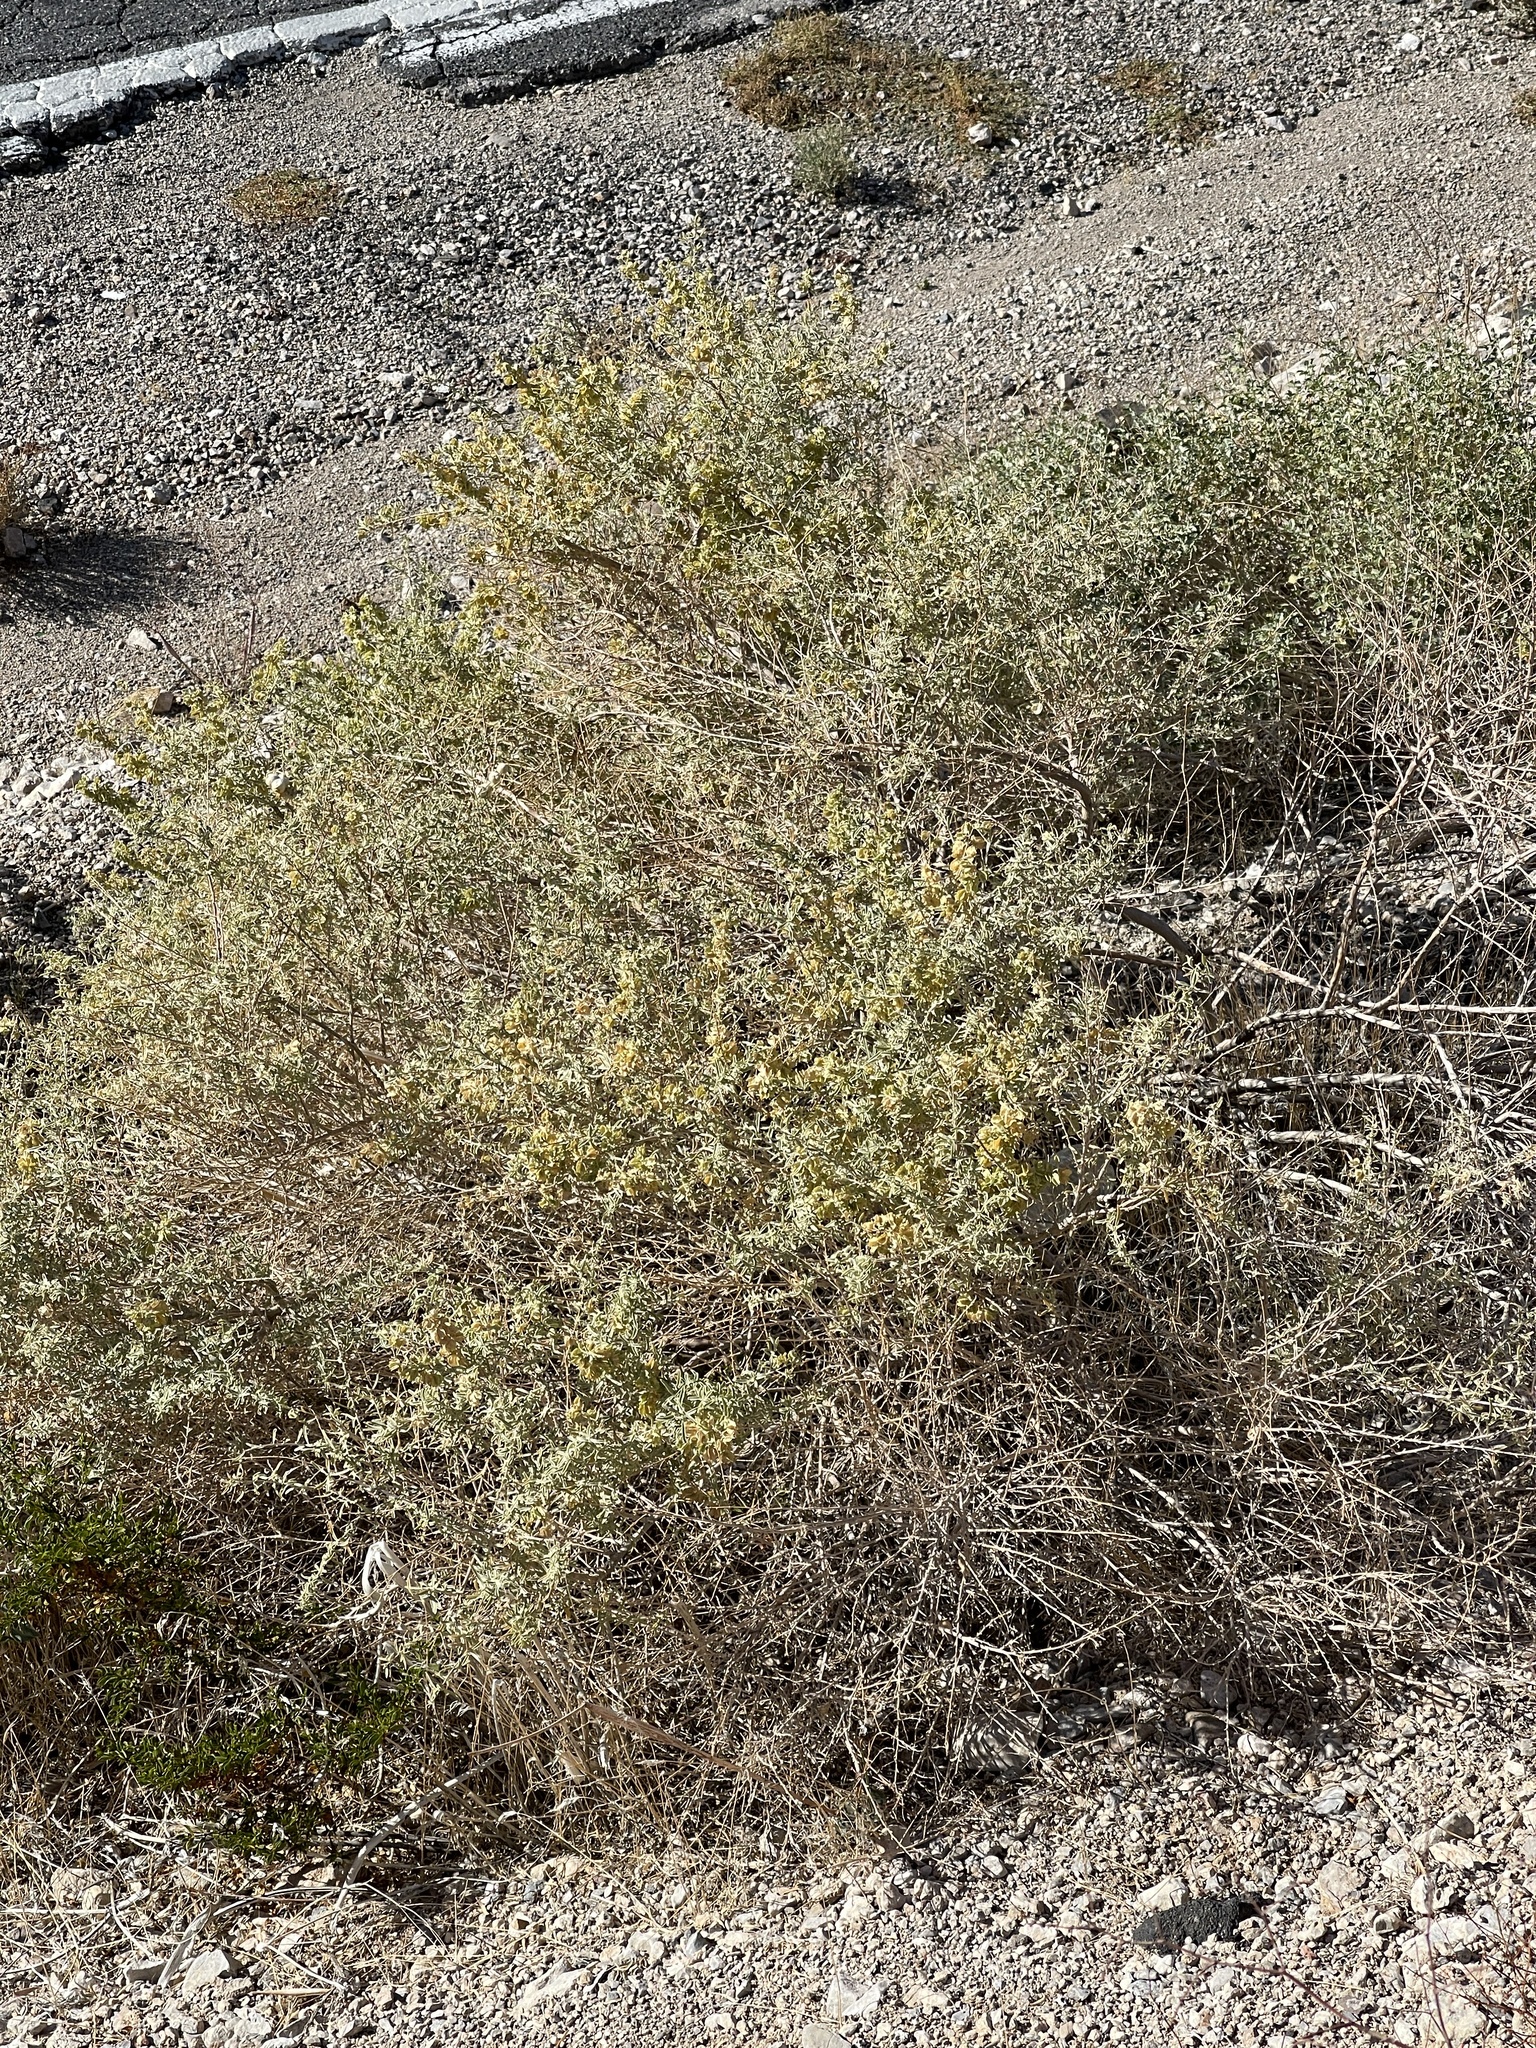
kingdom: Plantae
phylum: Tracheophyta
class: Magnoliopsida
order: Caryophyllales
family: Amaranthaceae
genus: Atriplex
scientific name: Atriplex canescens
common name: Four-wing saltbush
